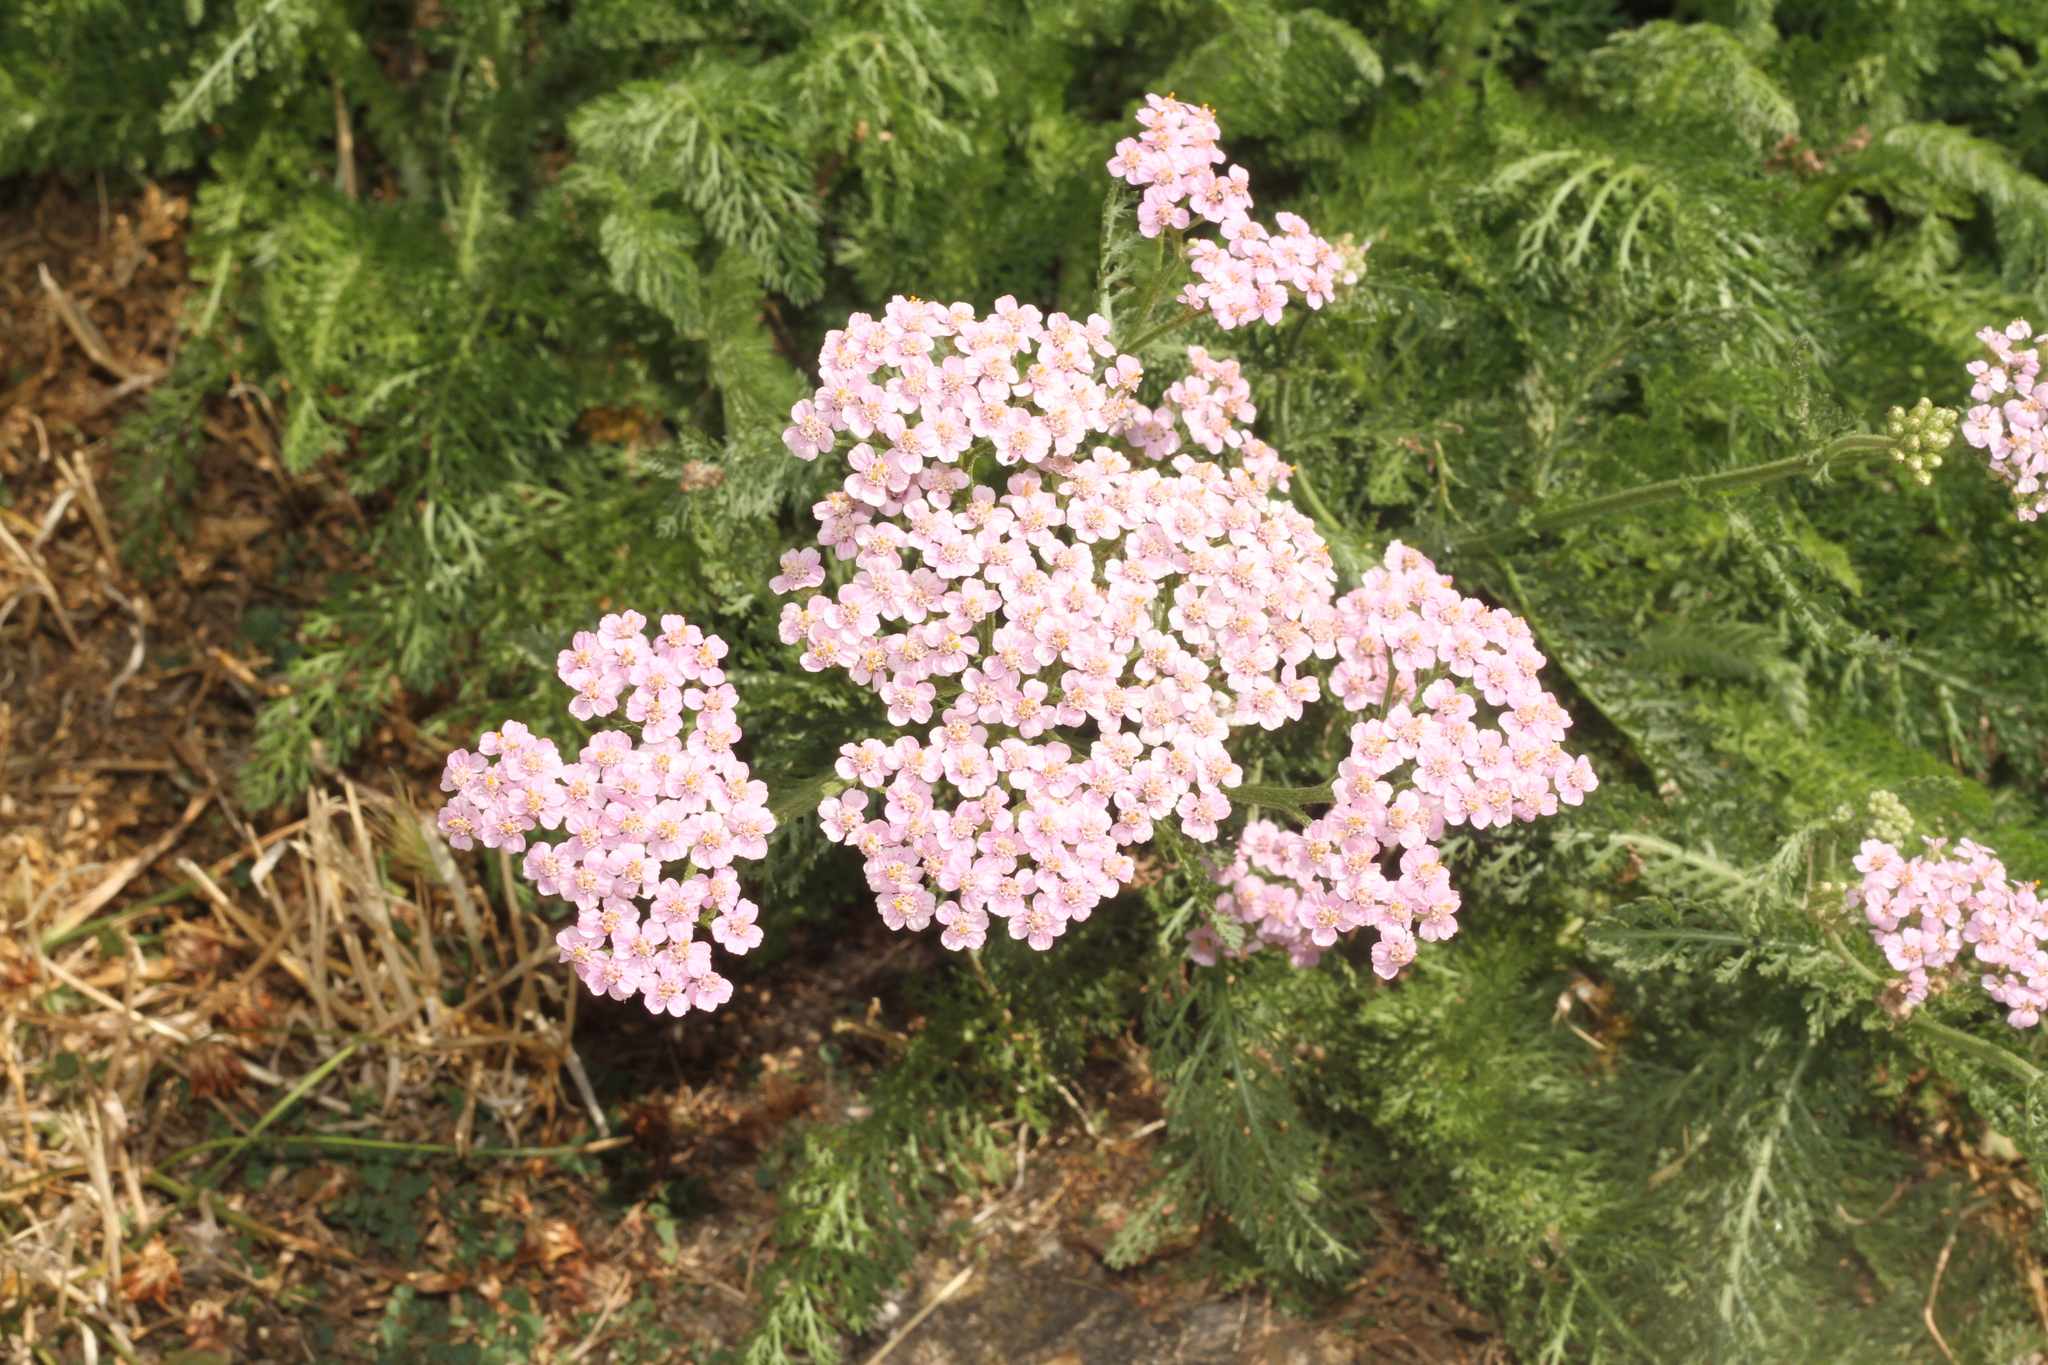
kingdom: Plantae
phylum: Tracheophyta
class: Magnoliopsida
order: Asterales
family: Asteraceae
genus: Achillea
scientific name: Achillea millefolium
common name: Yarrow
